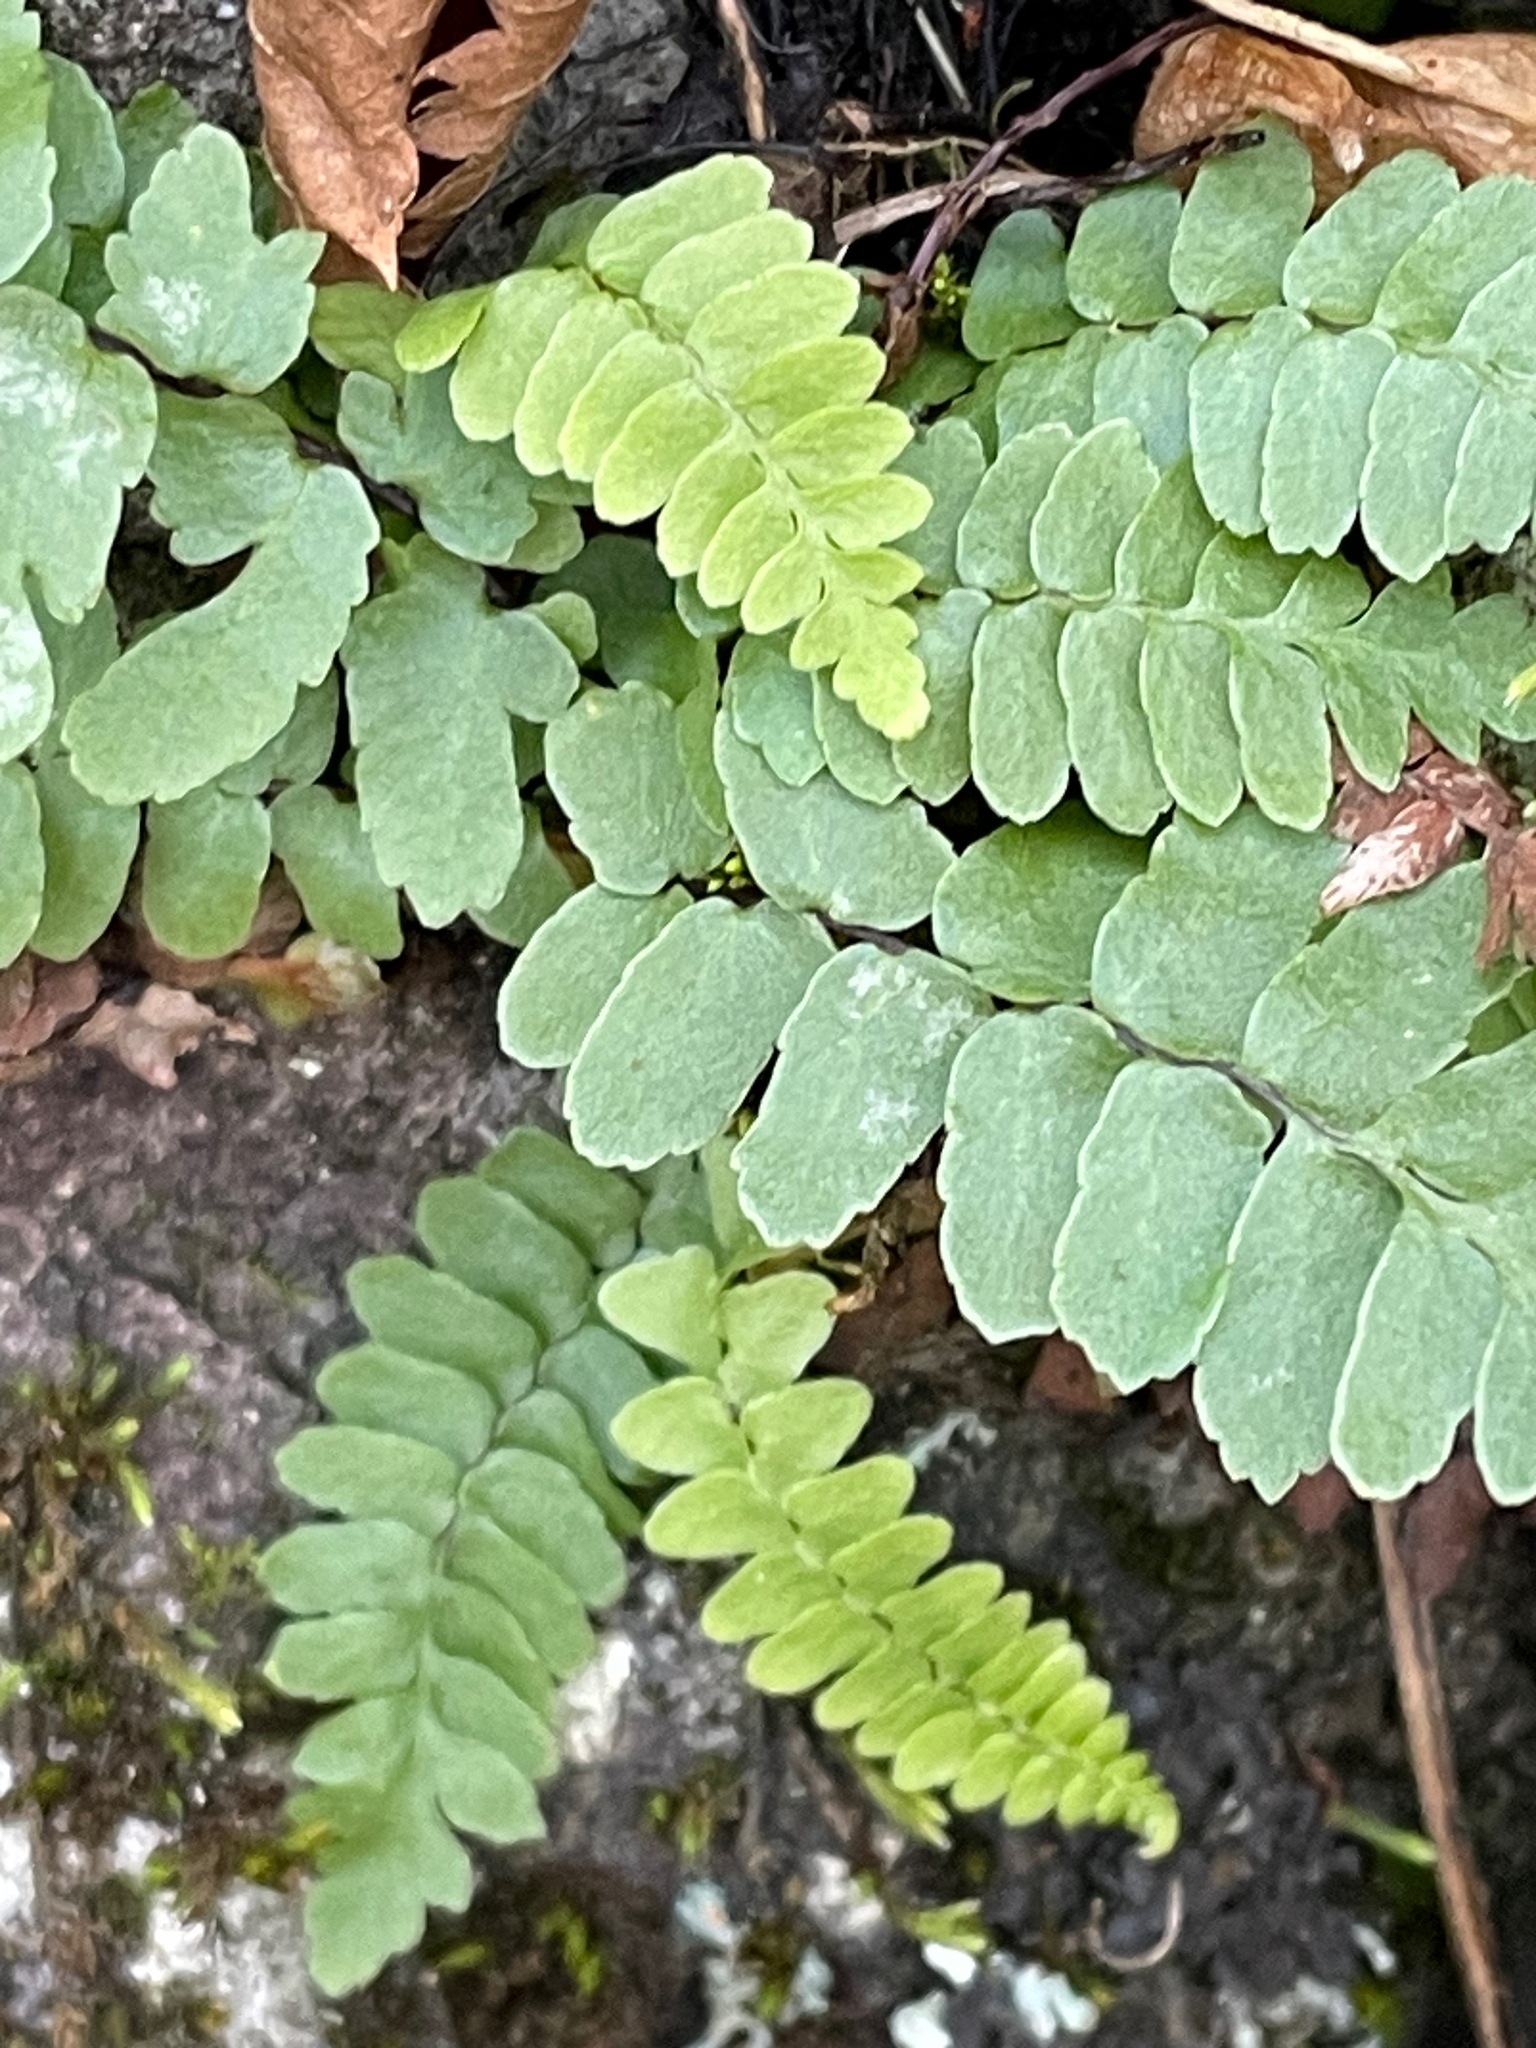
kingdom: Plantae
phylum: Tracheophyta
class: Polypodiopsida
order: Polypodiales
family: Aspleniaceae
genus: Asplenium
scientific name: Asplenium platyneuron
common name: Ebony spleenwort
